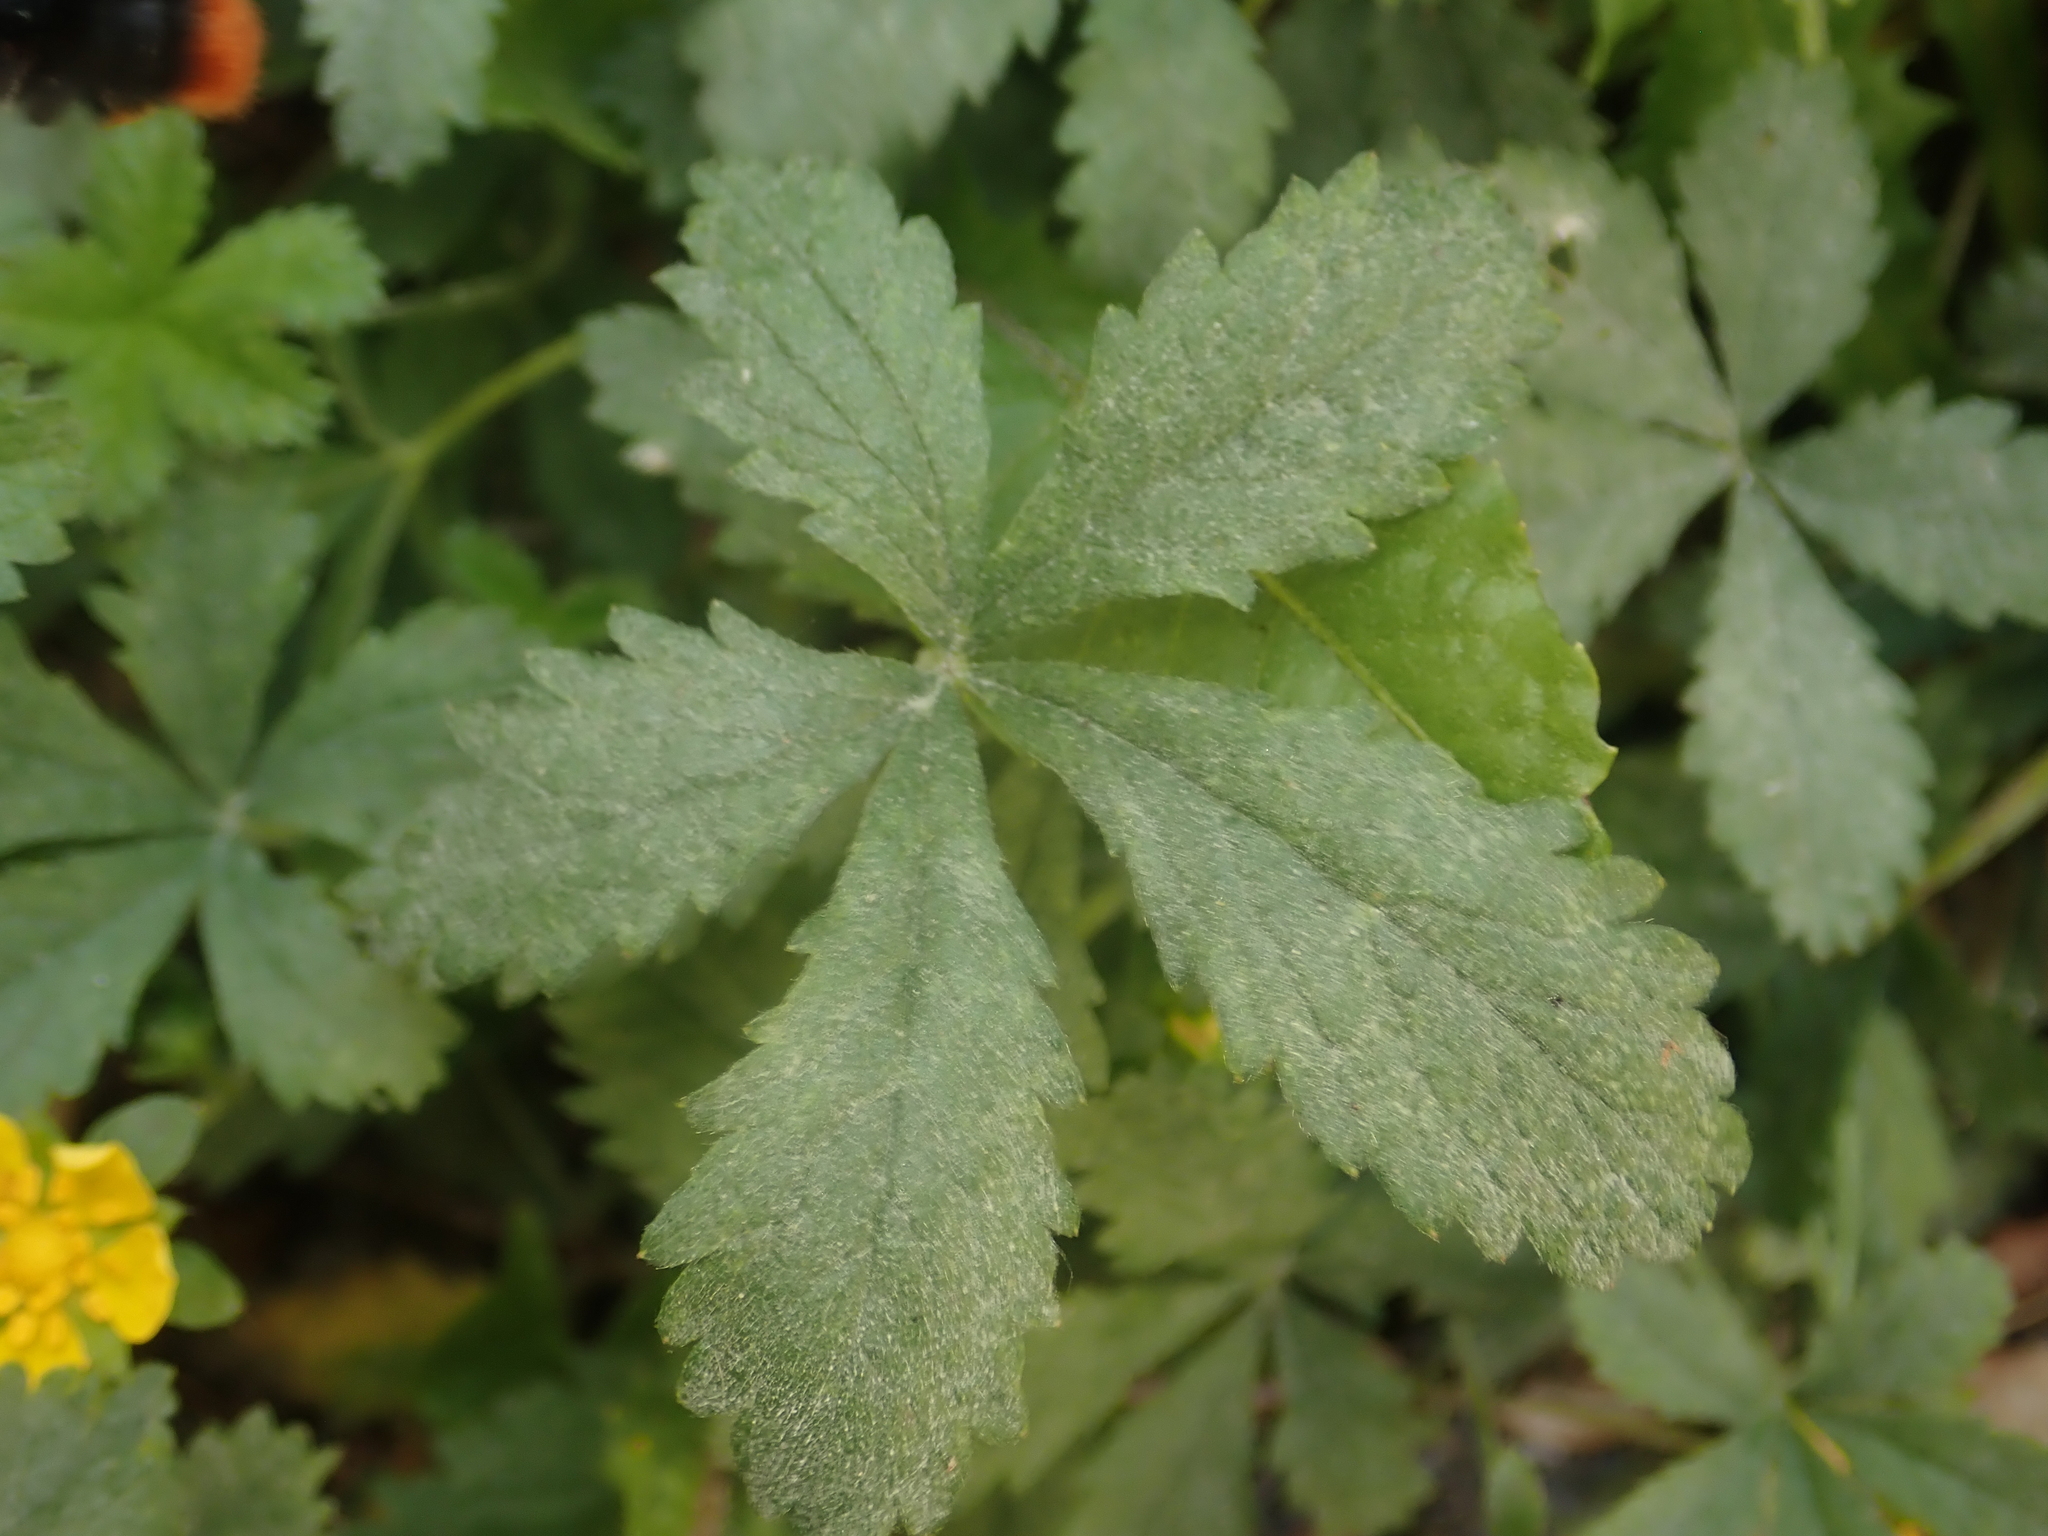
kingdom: Fungi
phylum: Ascomycota
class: Leotiomycetes
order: Helotiales
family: Erysiphaceae
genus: Podosphaera
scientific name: Podosphaera aphanis
